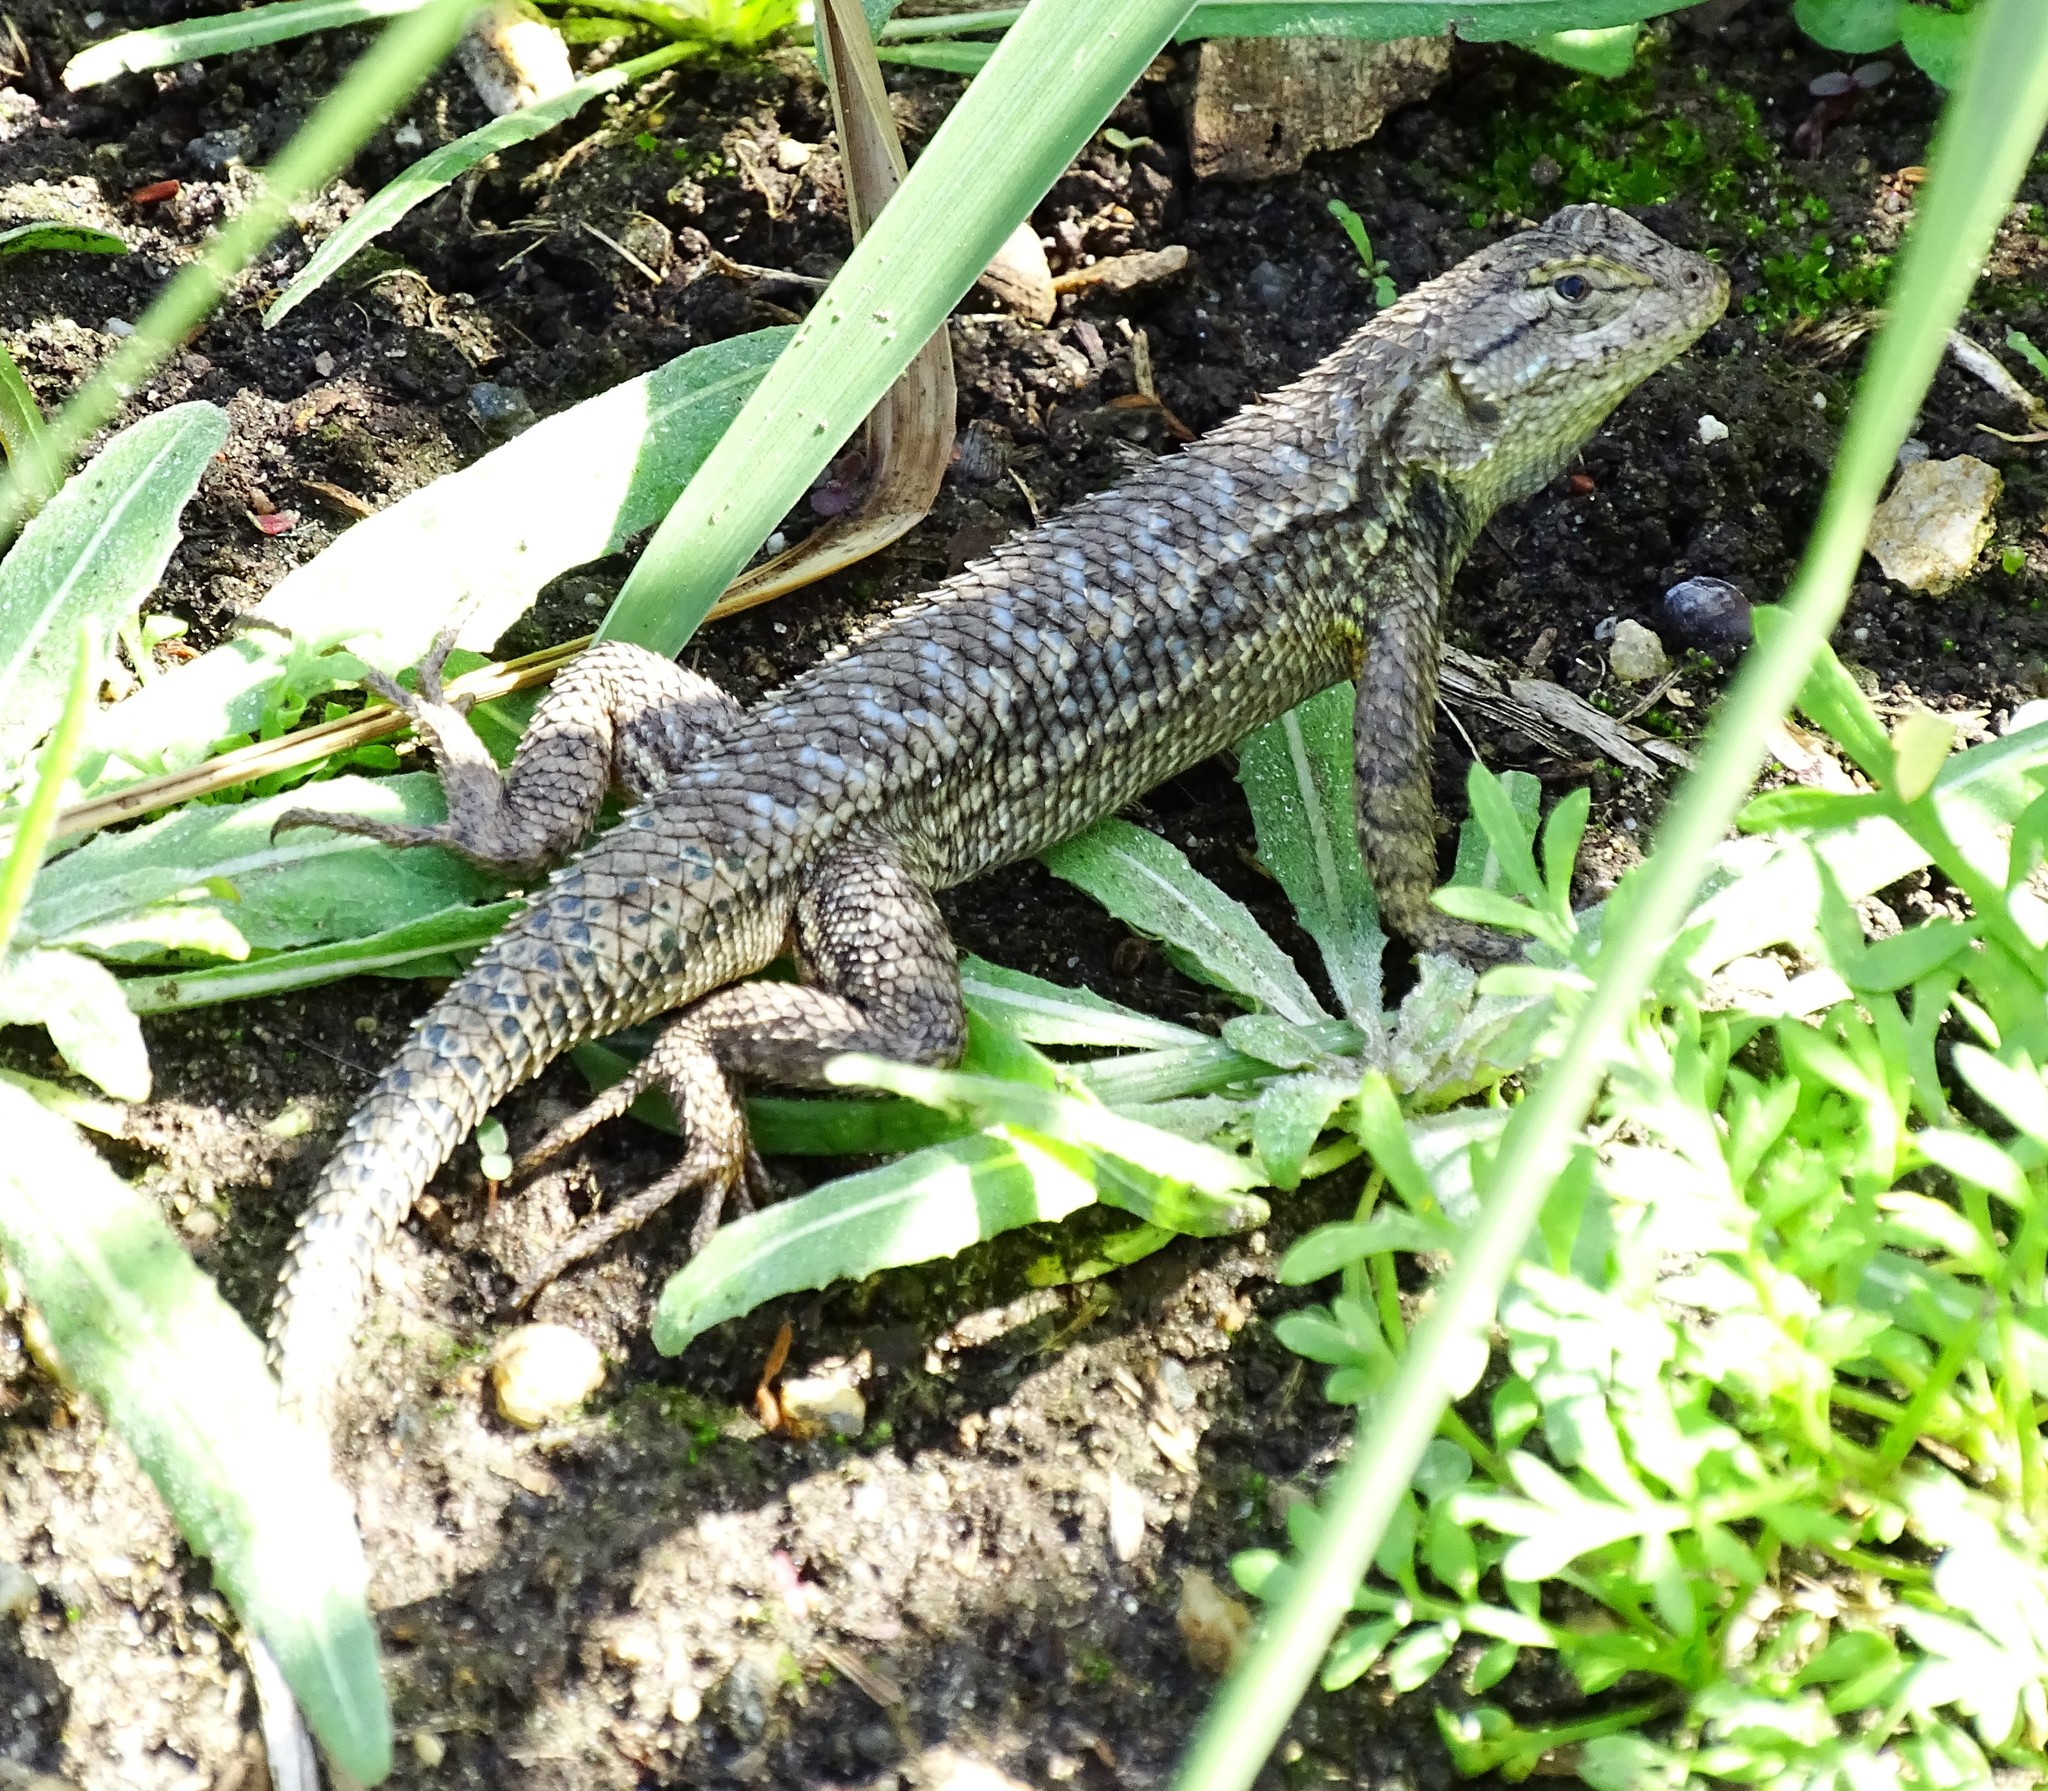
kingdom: Animalia
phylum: Chordata
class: Squamata
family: Phrynosomatidae
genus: Sceloporus
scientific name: Sceloporus occidentalis
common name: Western fence lizard
